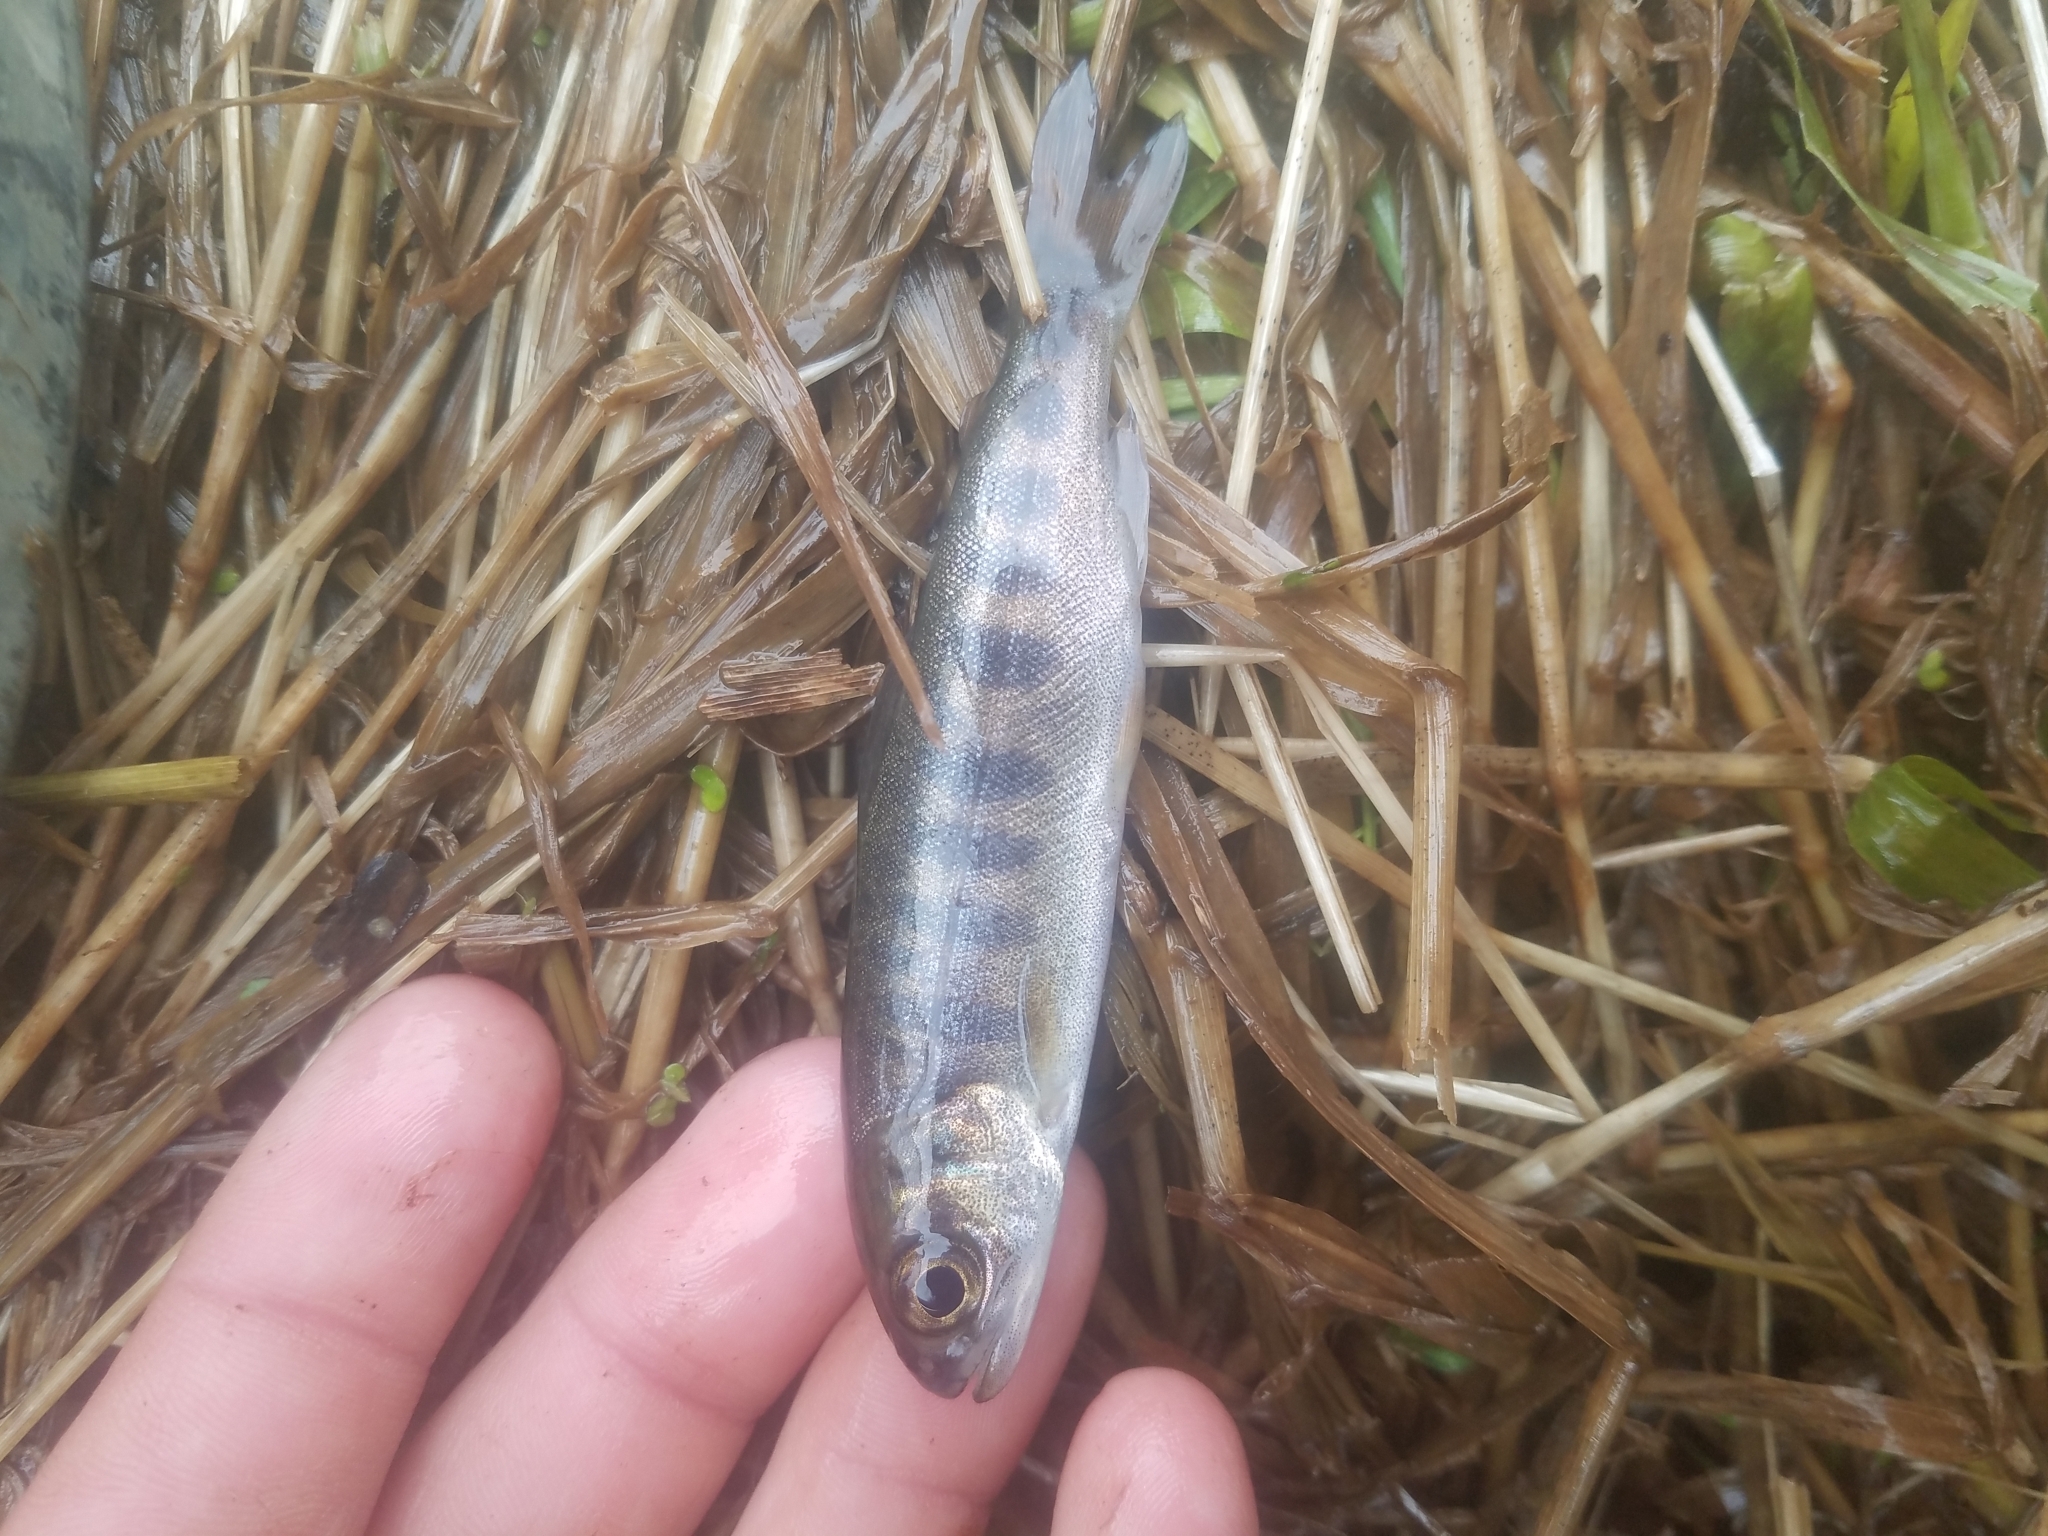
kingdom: Animalia
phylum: Chordata
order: Salmoniformes
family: Salmonidae
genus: Oncorhynchus
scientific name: Oncorhynchus kisutch
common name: Coho salmon
